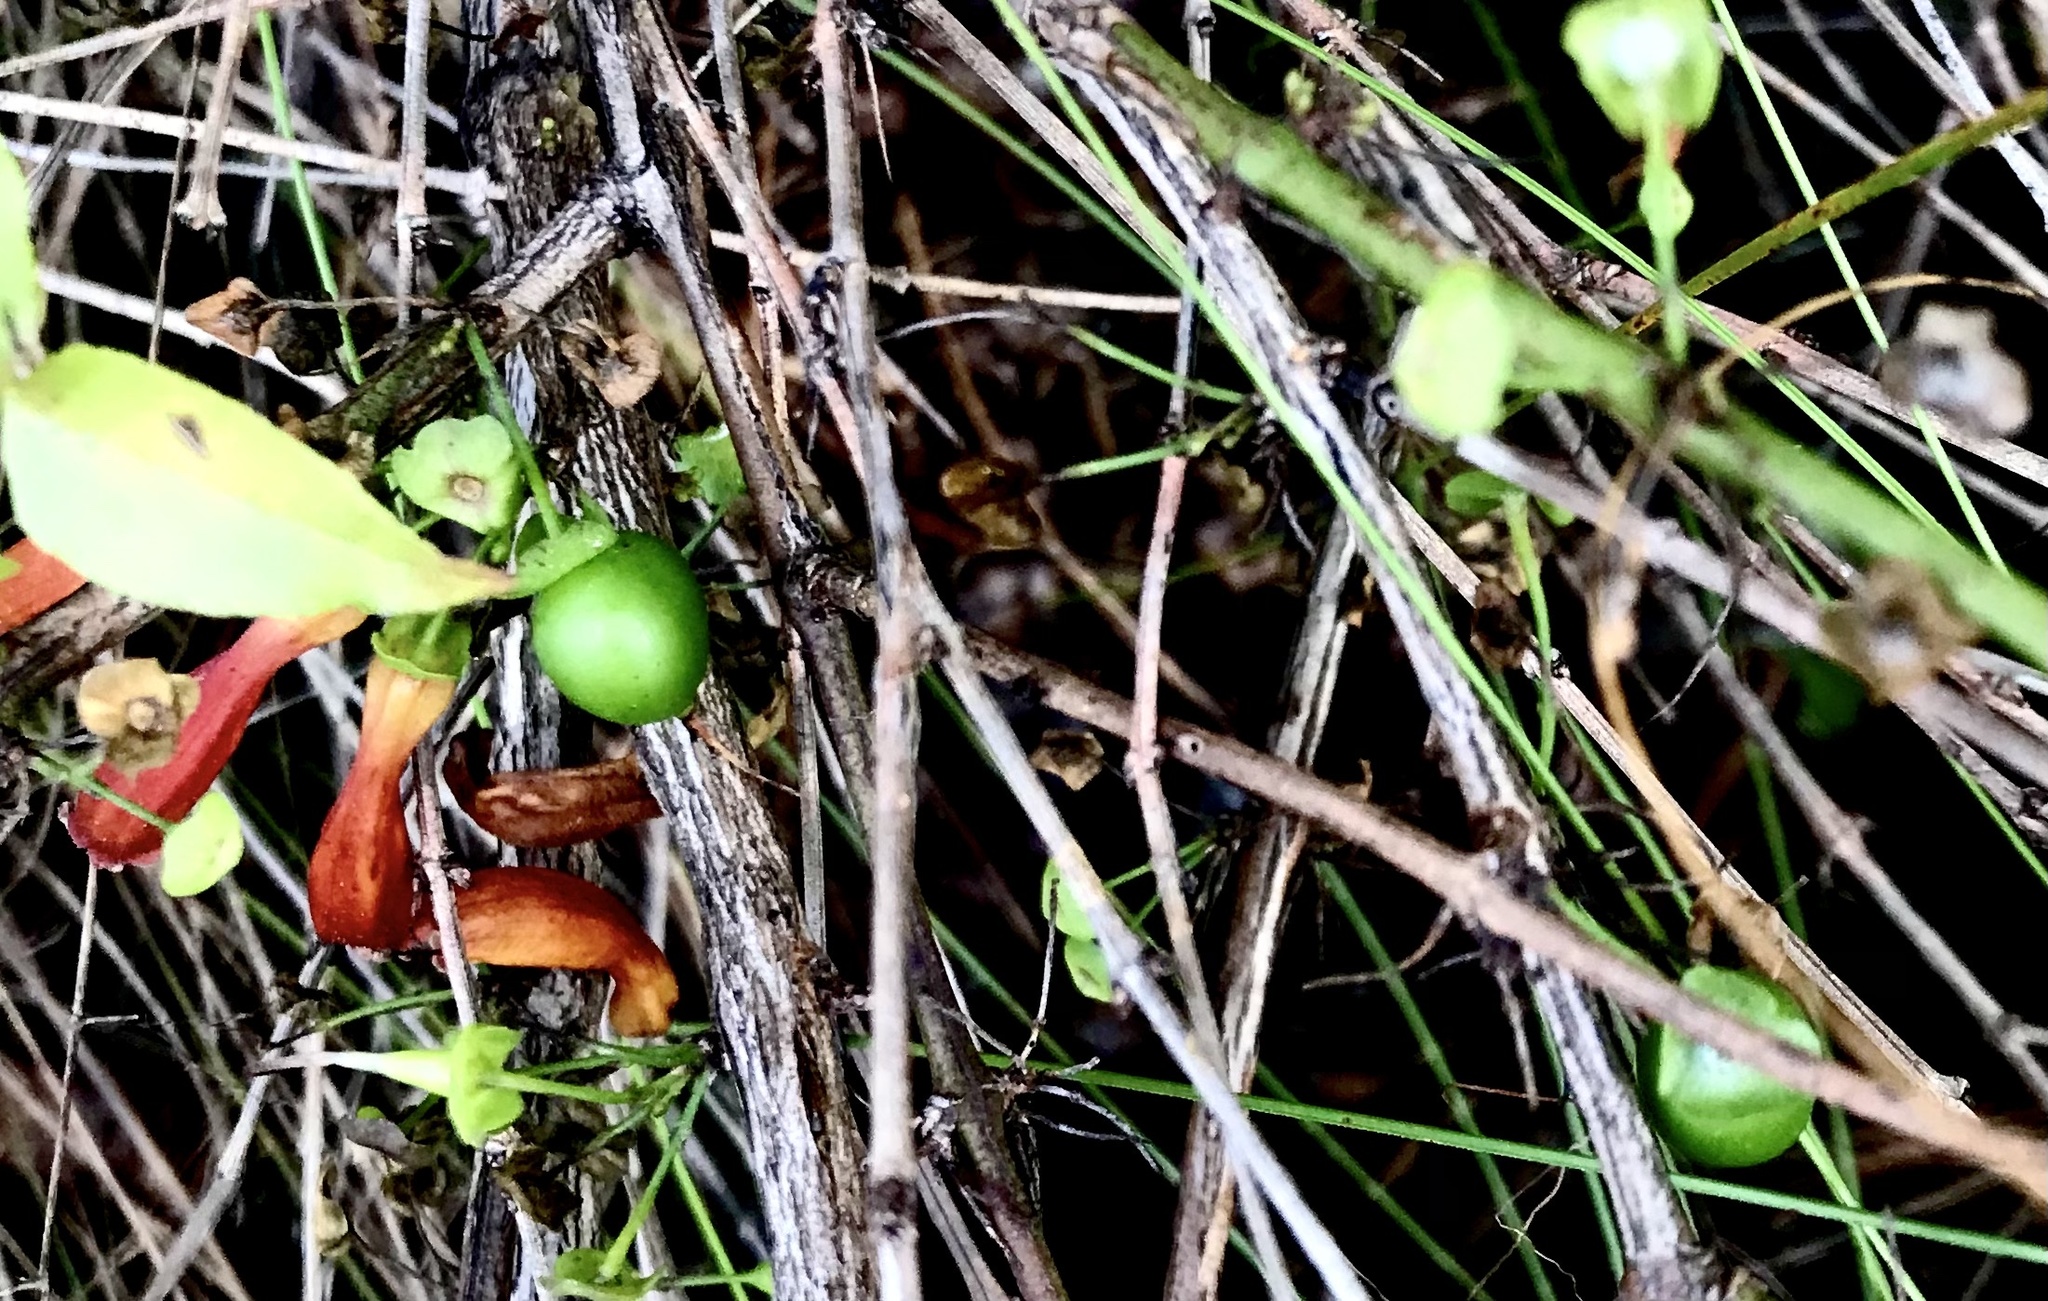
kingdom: Plantae
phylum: Tracheophyta
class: Magnoliopsida
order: Lamiales
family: Stilbaceae
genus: Halleria
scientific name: Halleria lucida
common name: Tree fuschia
